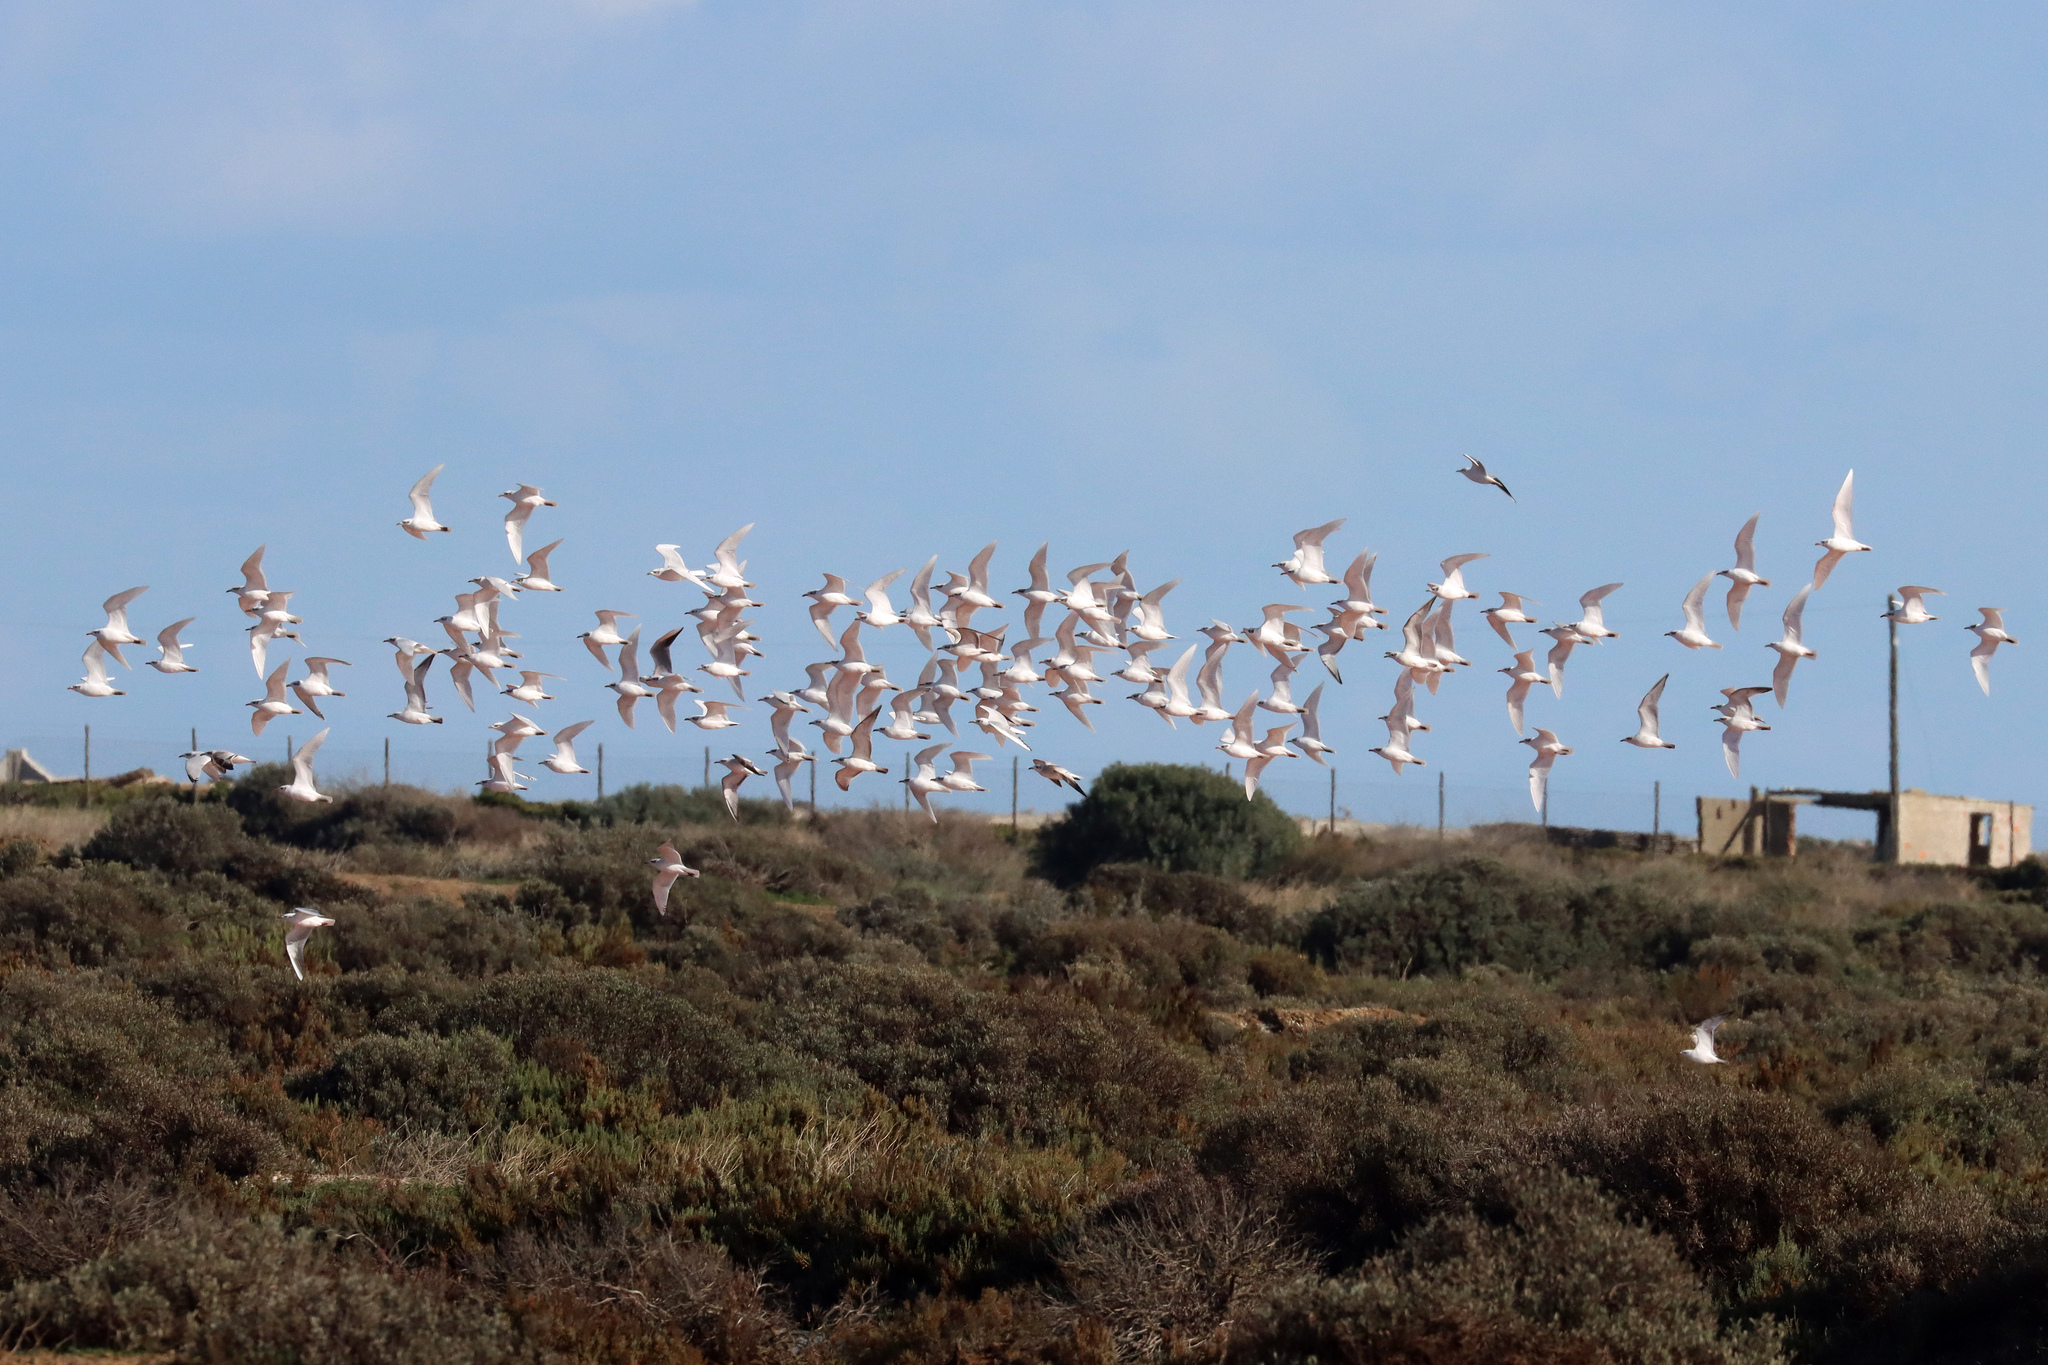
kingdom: Animalia
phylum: Chordata
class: Aves
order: Charadriiformes
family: Laridae
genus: Ichthyaetus
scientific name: Ichthyaetus melanocephalus
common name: Mediterranean gull
